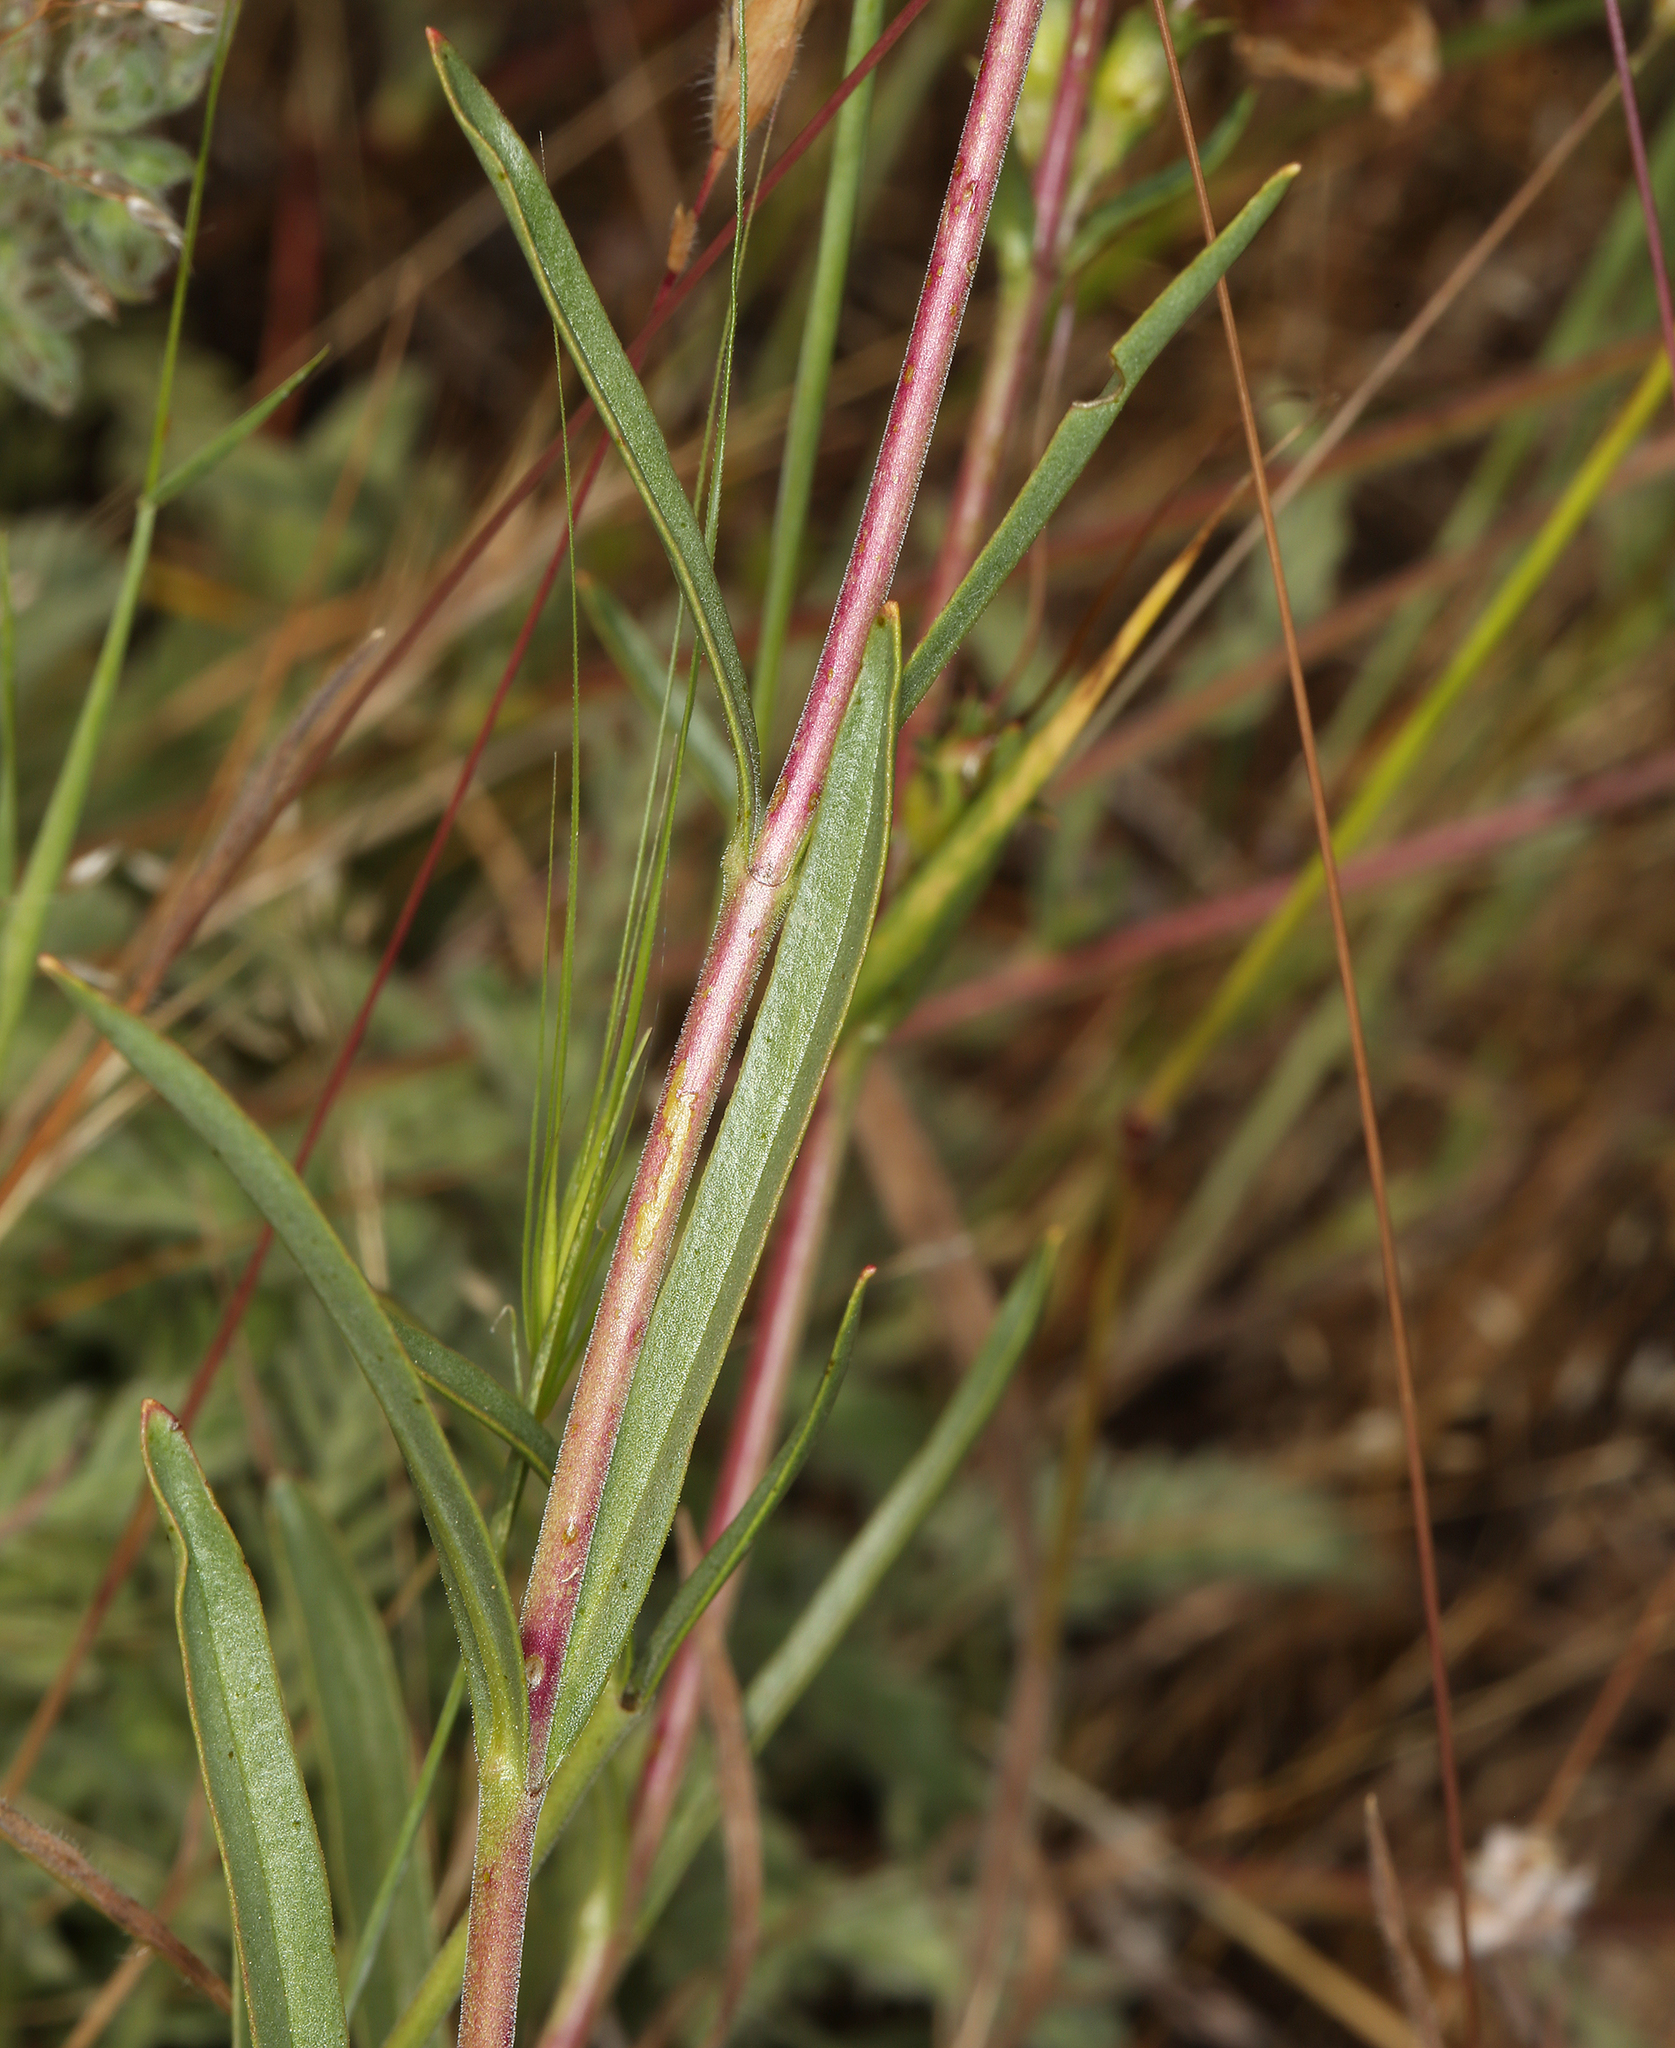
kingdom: Plantae
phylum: Tracheophyta
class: Magnoliopsida
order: Lamiales
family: Plantaginaceae
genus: Penstemon
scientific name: Penstemon heterophyllus
